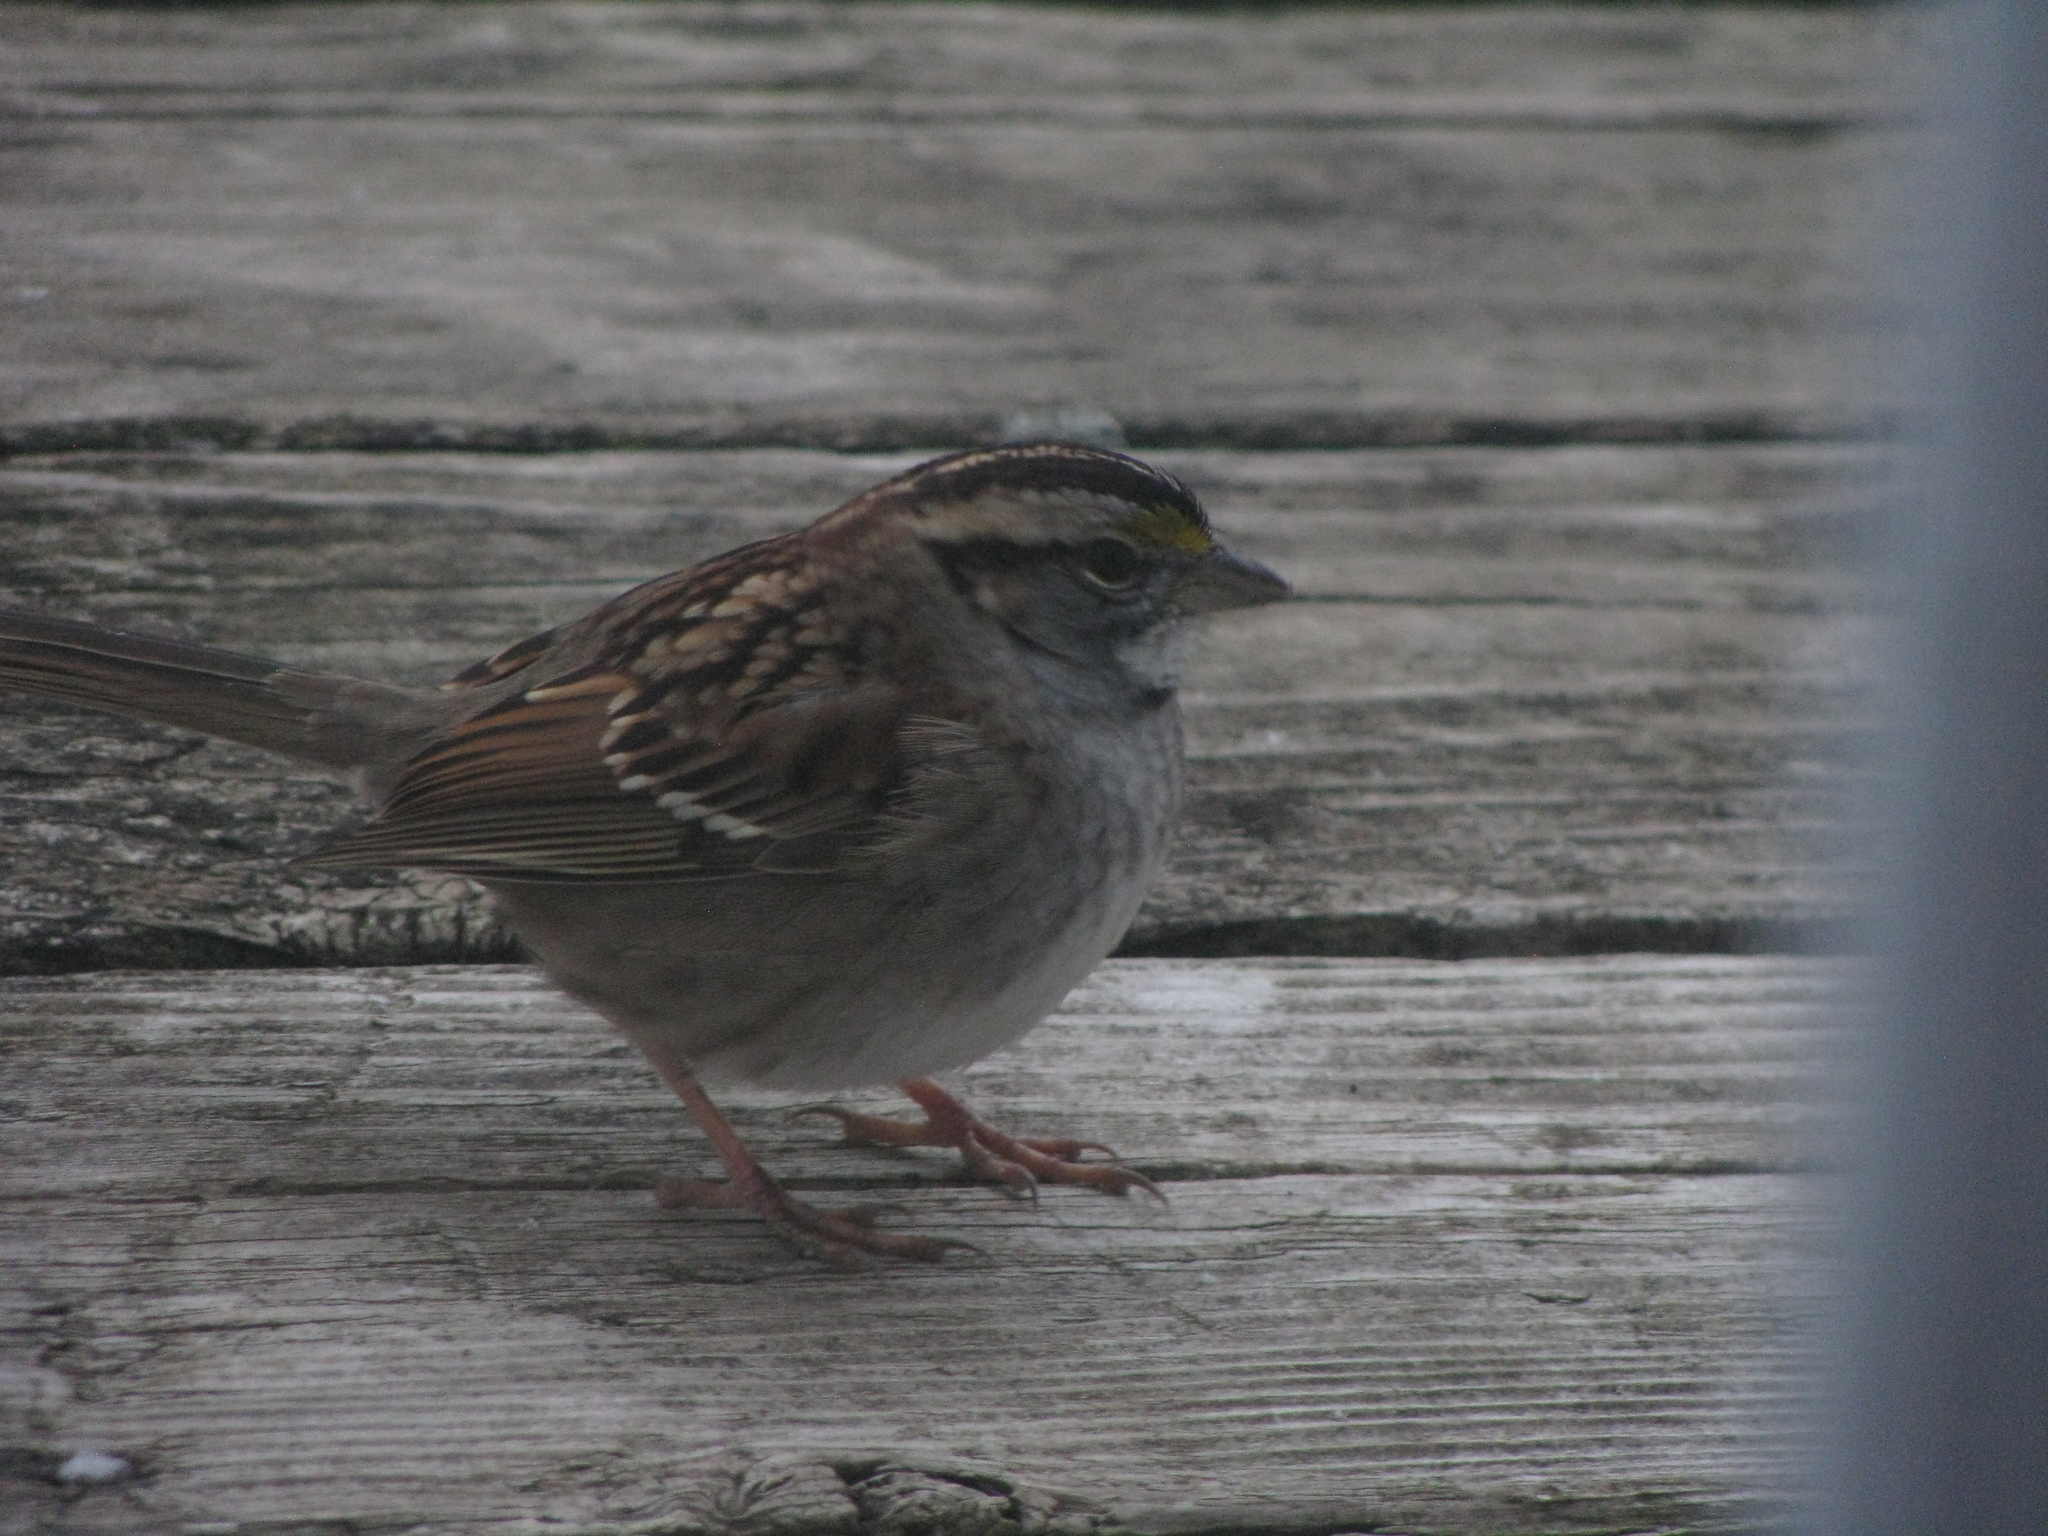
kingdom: Animalia
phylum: Chordata
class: Aves
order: Passeriformes
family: Passerellidae
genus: Zonotrichia
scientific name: Zonotrichia albicollis
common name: White-throated sparrow
